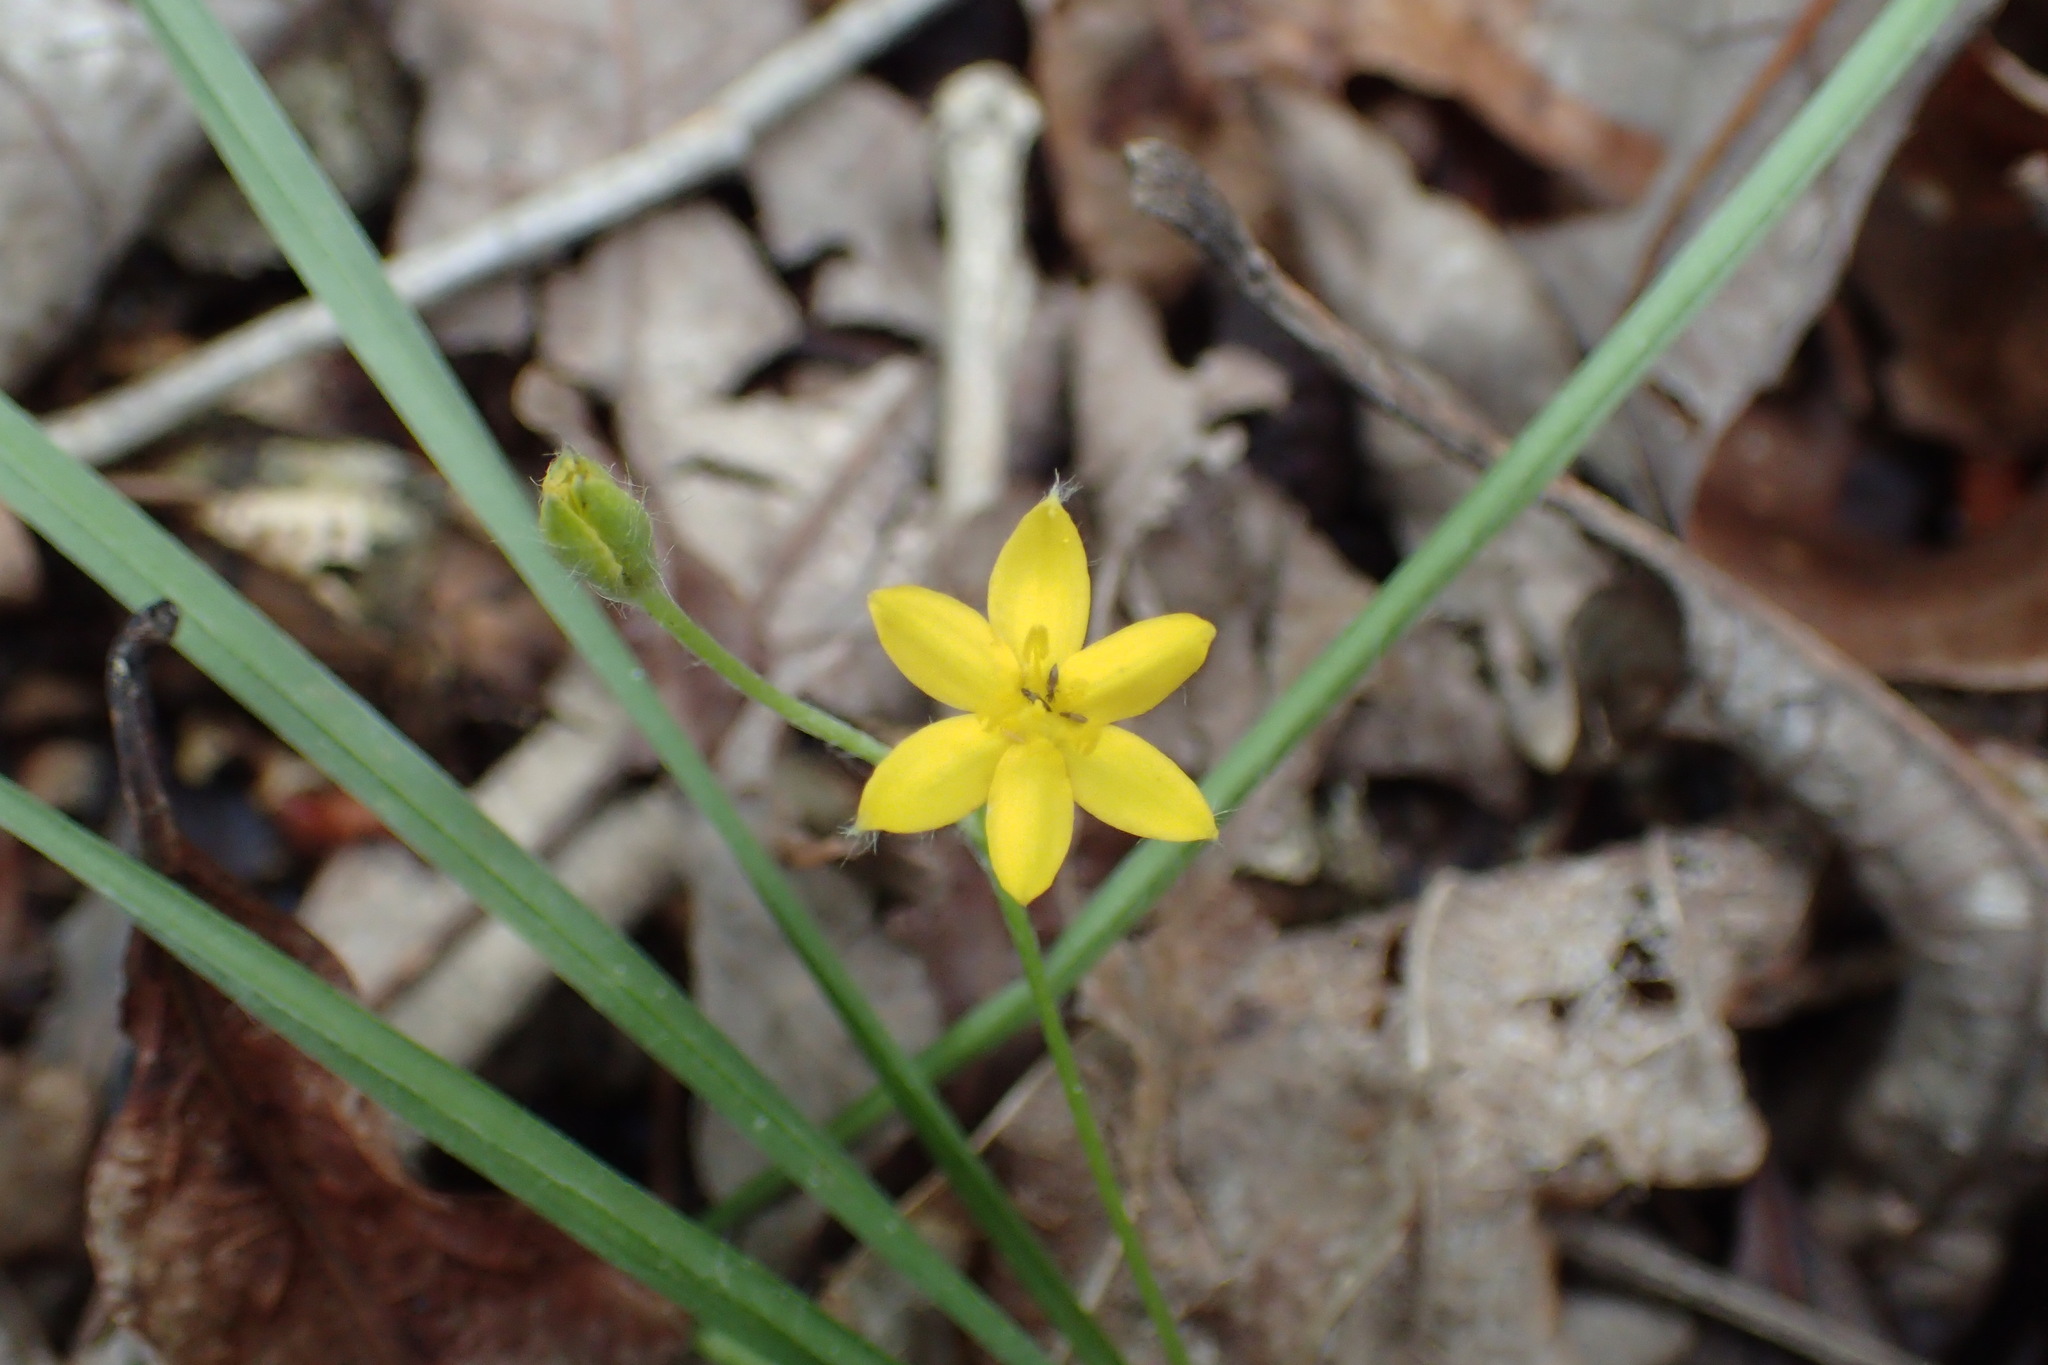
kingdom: Plantae
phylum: Tracheophyta
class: Liliopsida
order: Asparagales
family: Hypoxidaceae
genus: Hypoxis
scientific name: Hypoxis hirsuta
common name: Common goldstar
